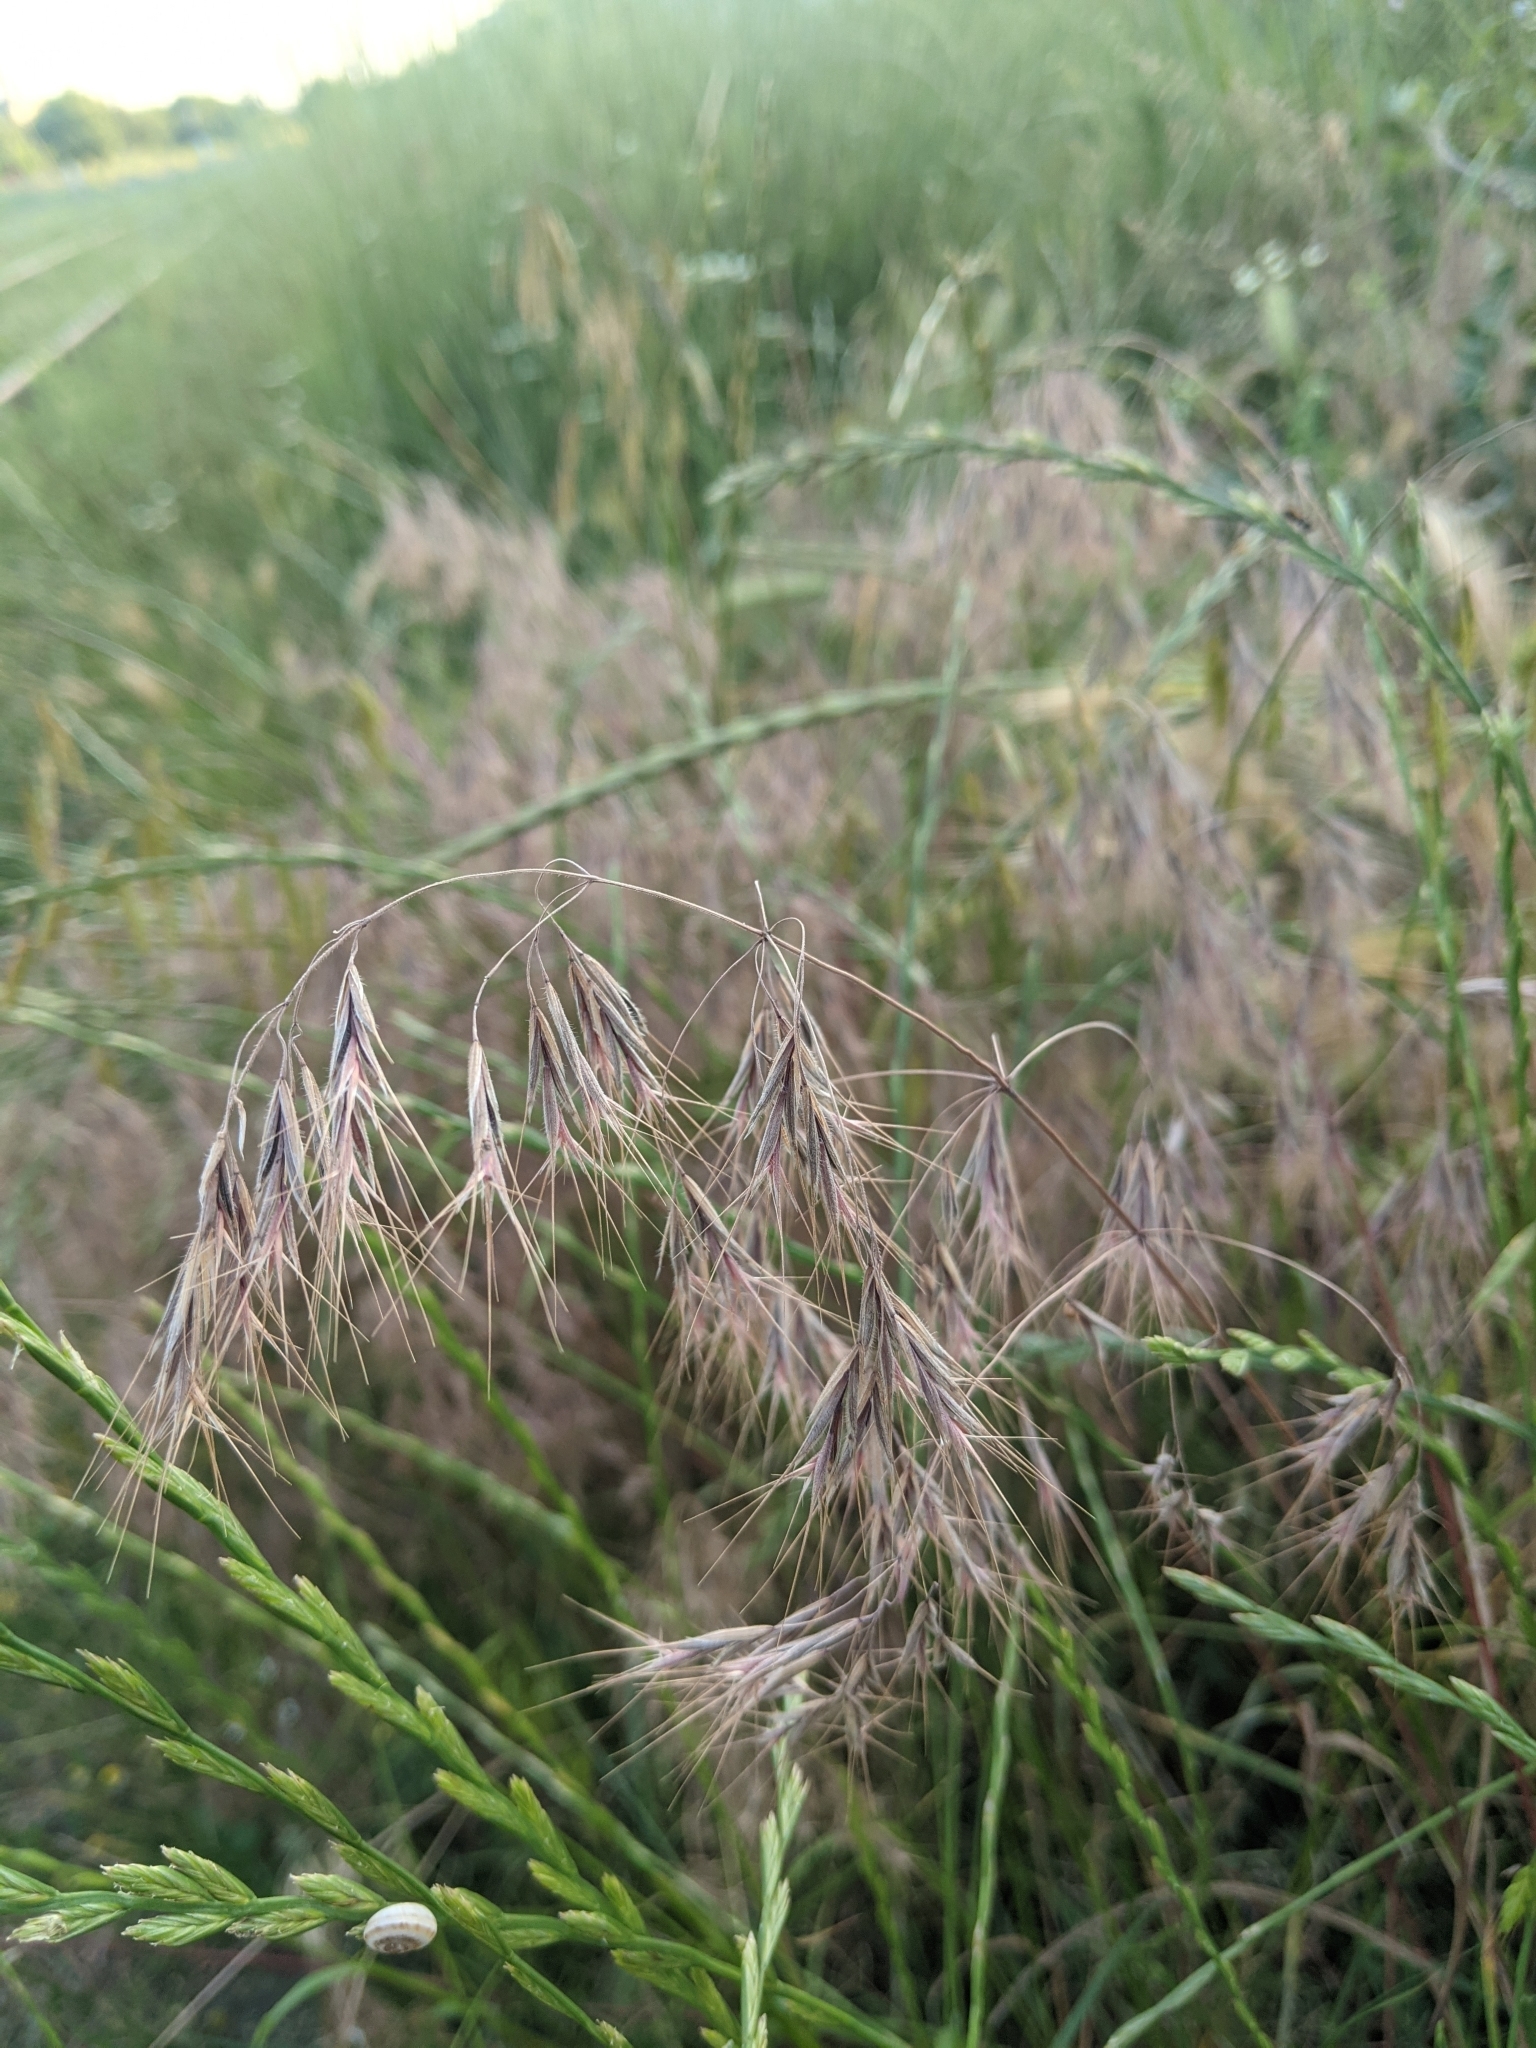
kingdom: Plantae
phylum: Tracheophyta
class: Liliopsida
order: Poales
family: Poaceae
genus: Bromus
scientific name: Bromus tectorum
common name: Cheatgrass
